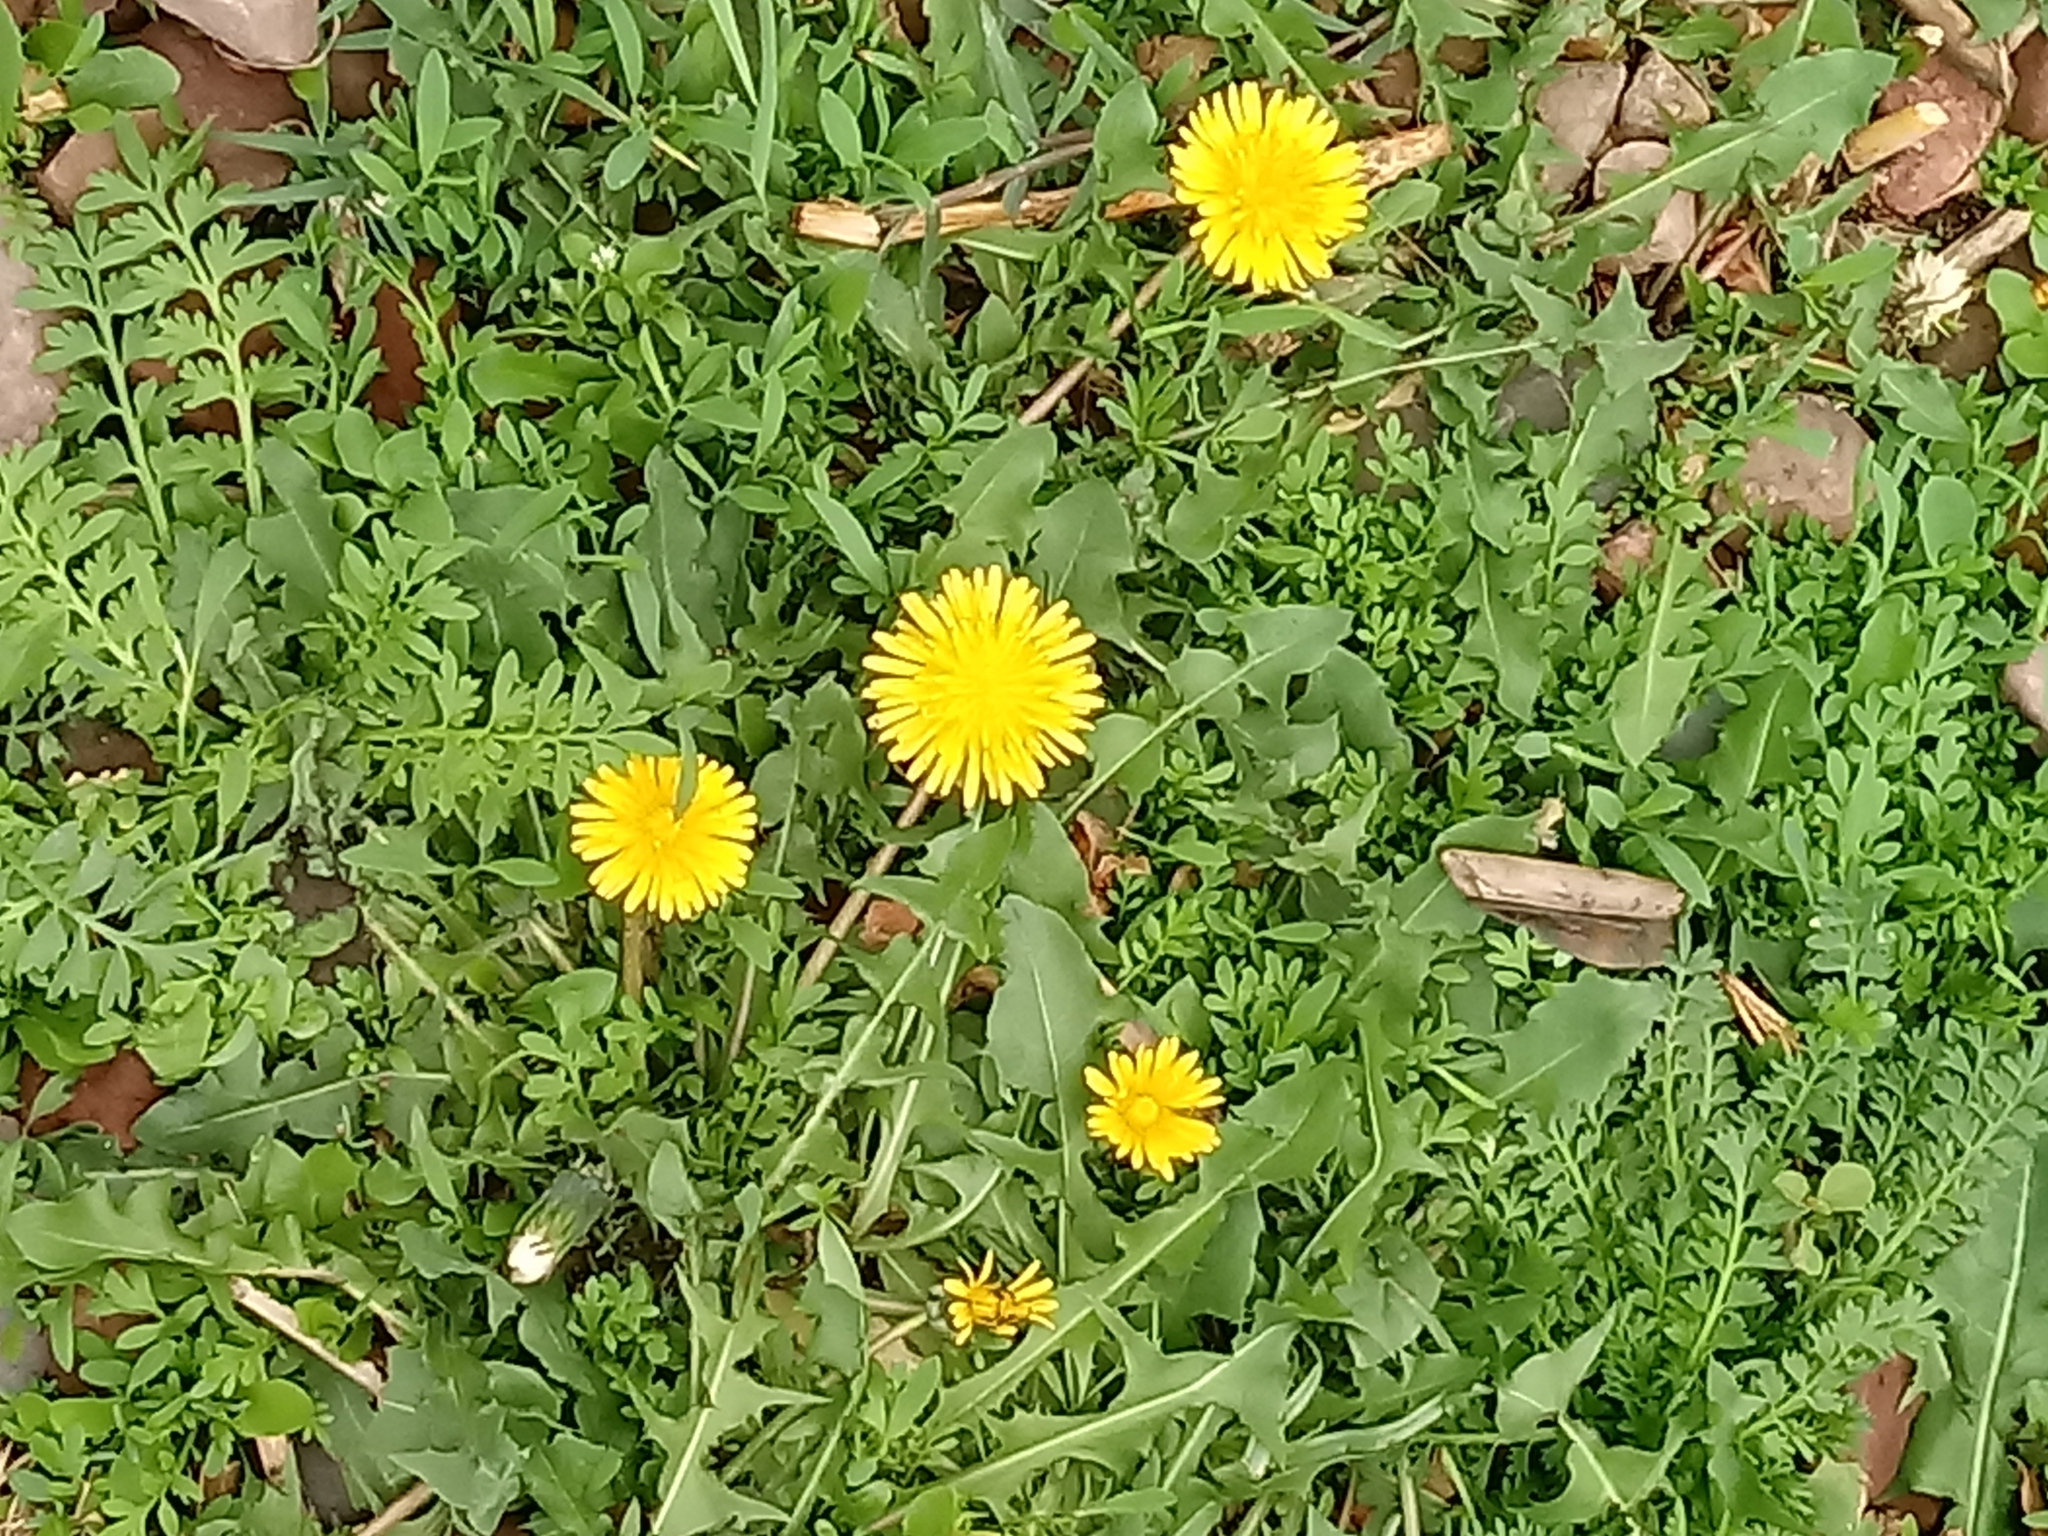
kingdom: Plantae
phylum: Tracheophyta
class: Magnoliopsida
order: Asterales
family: Asteraceae
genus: Taraxacum
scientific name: Taraxacum officinale
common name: Common dandelion
